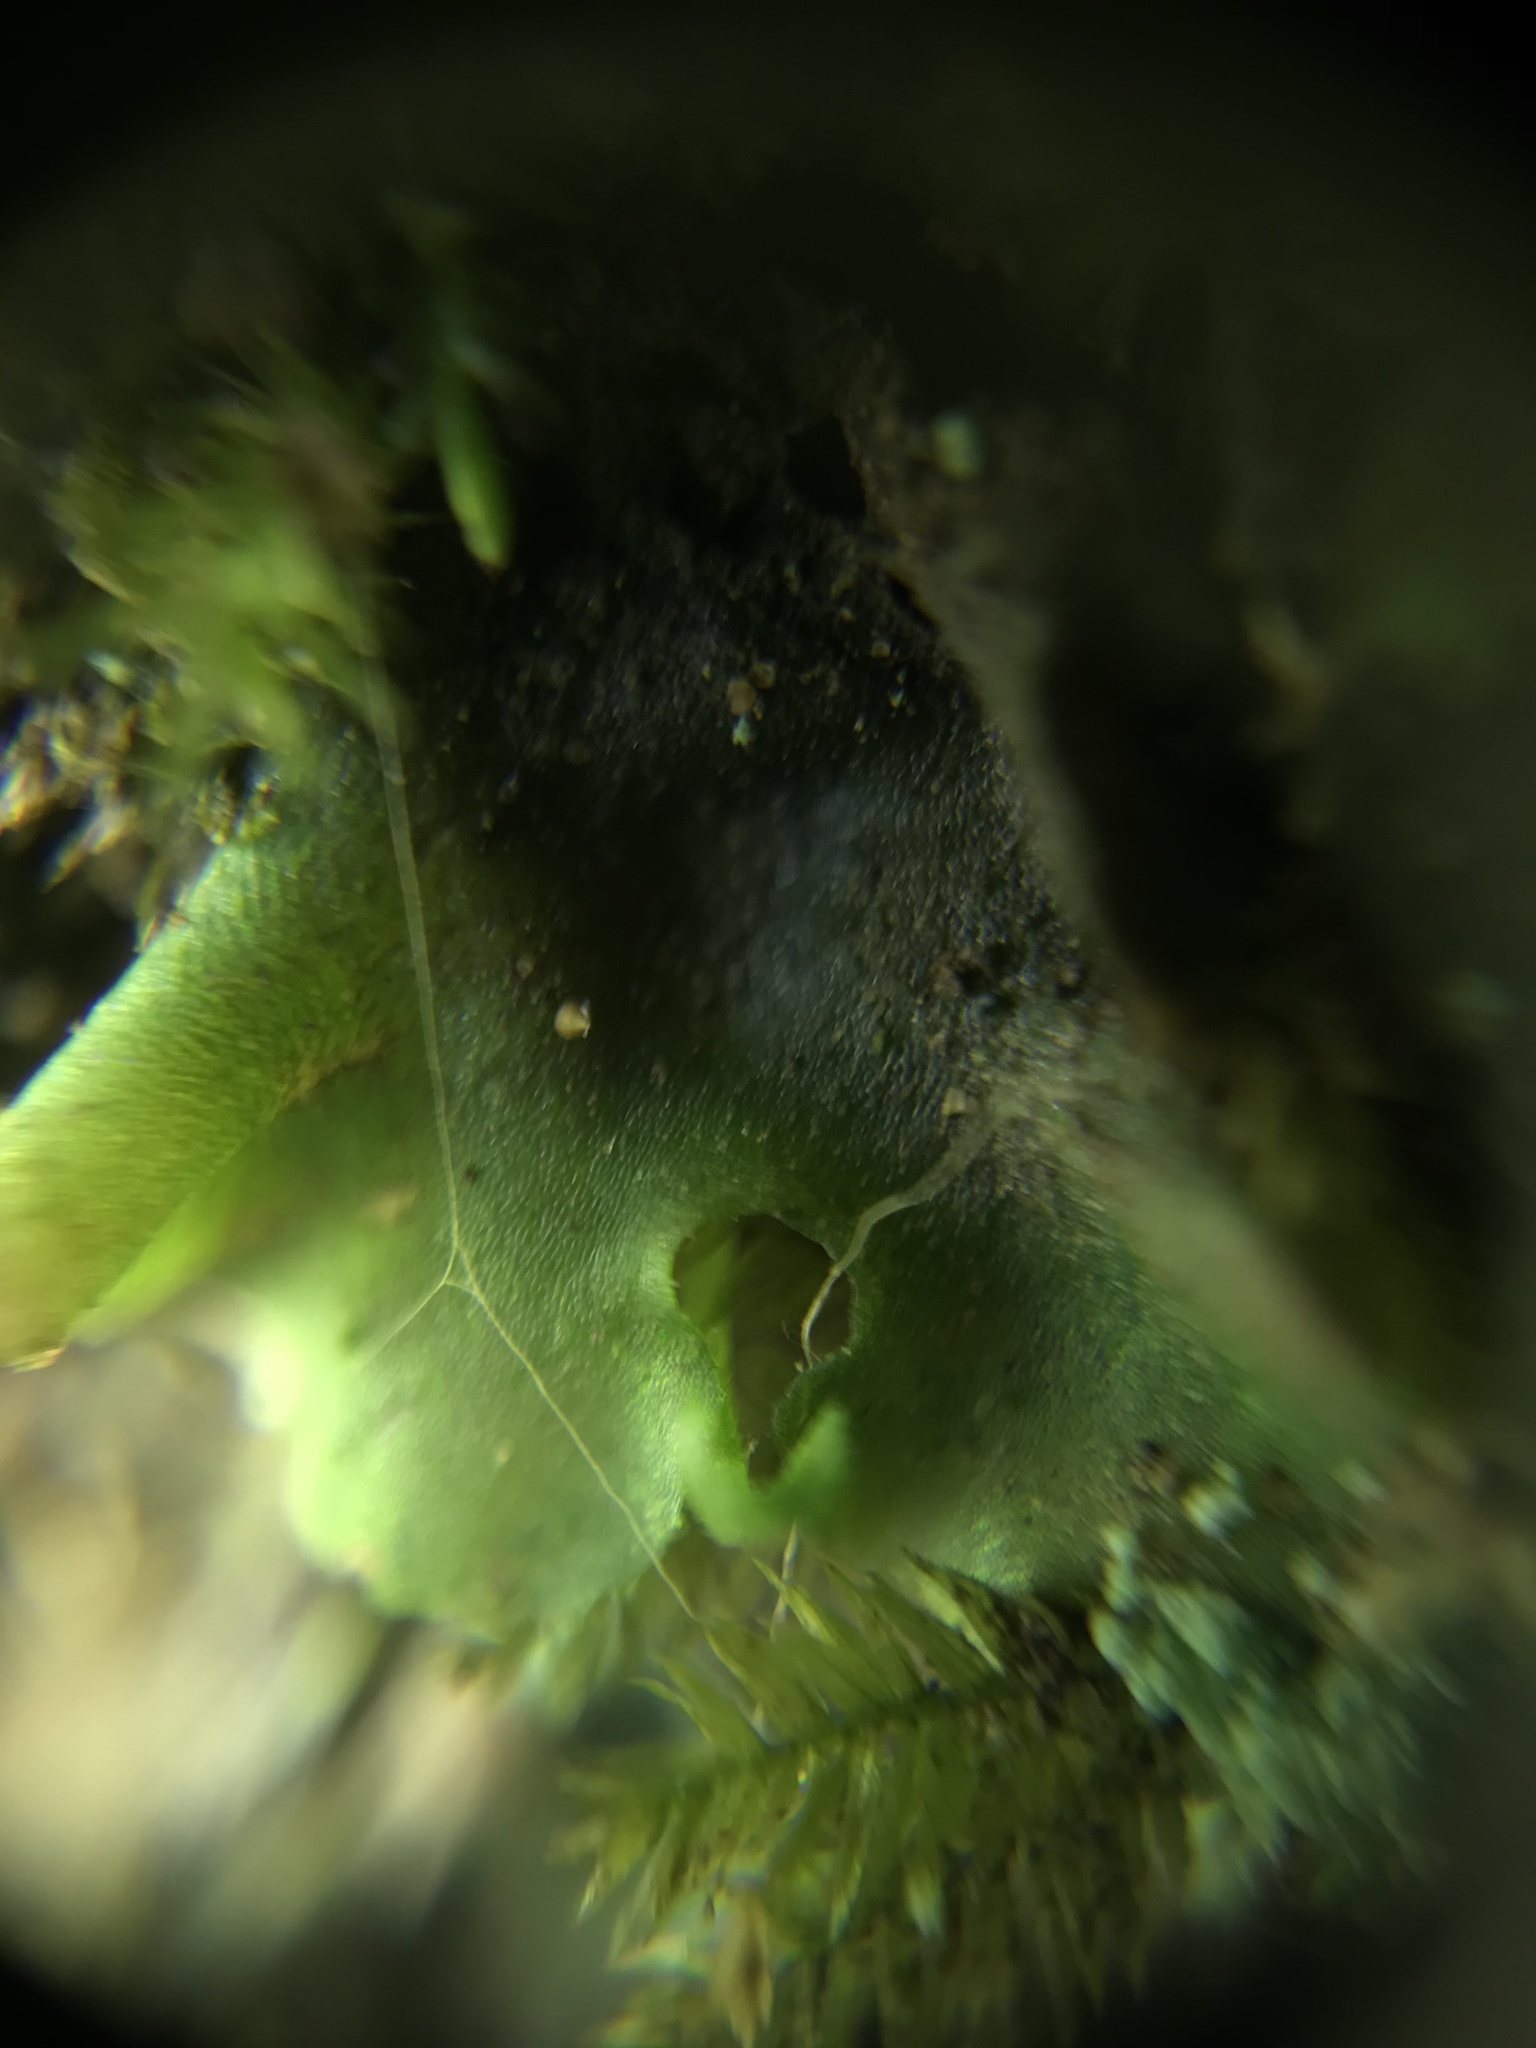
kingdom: Plantae
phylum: Tracheophyta
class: Polypodiopsida
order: Polypodiales
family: Dryopteridaceae
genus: Polystichum
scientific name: Polystichum munitum
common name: Western sword-fern
